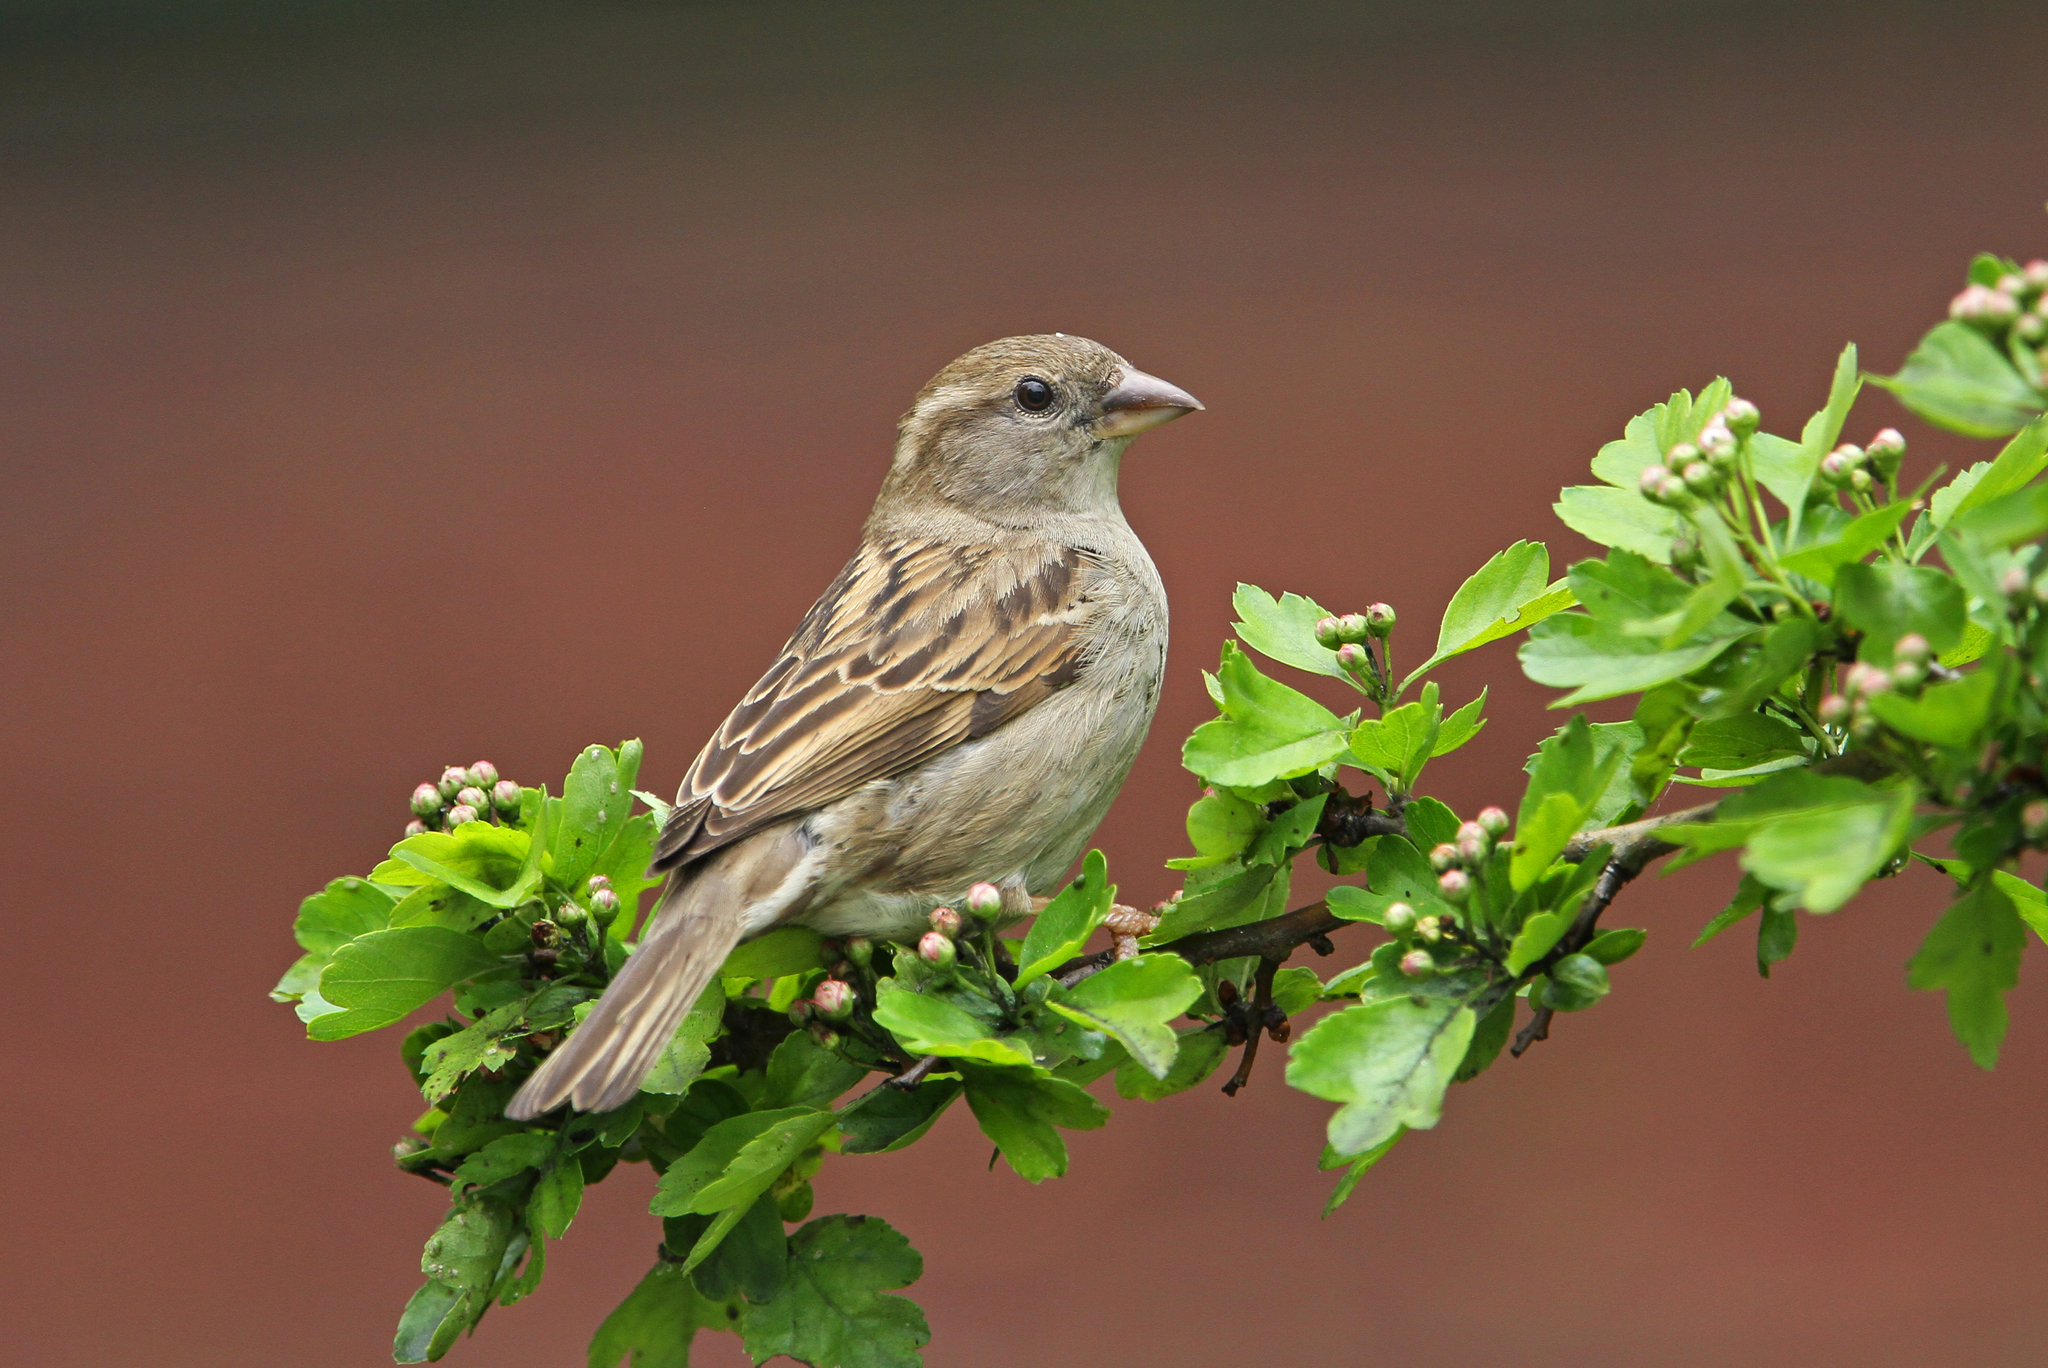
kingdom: Animalia
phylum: Chordata
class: Aves
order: Passeriformes
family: Passeridae
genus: Passer
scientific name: Passer domesticus
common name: House sparrow
